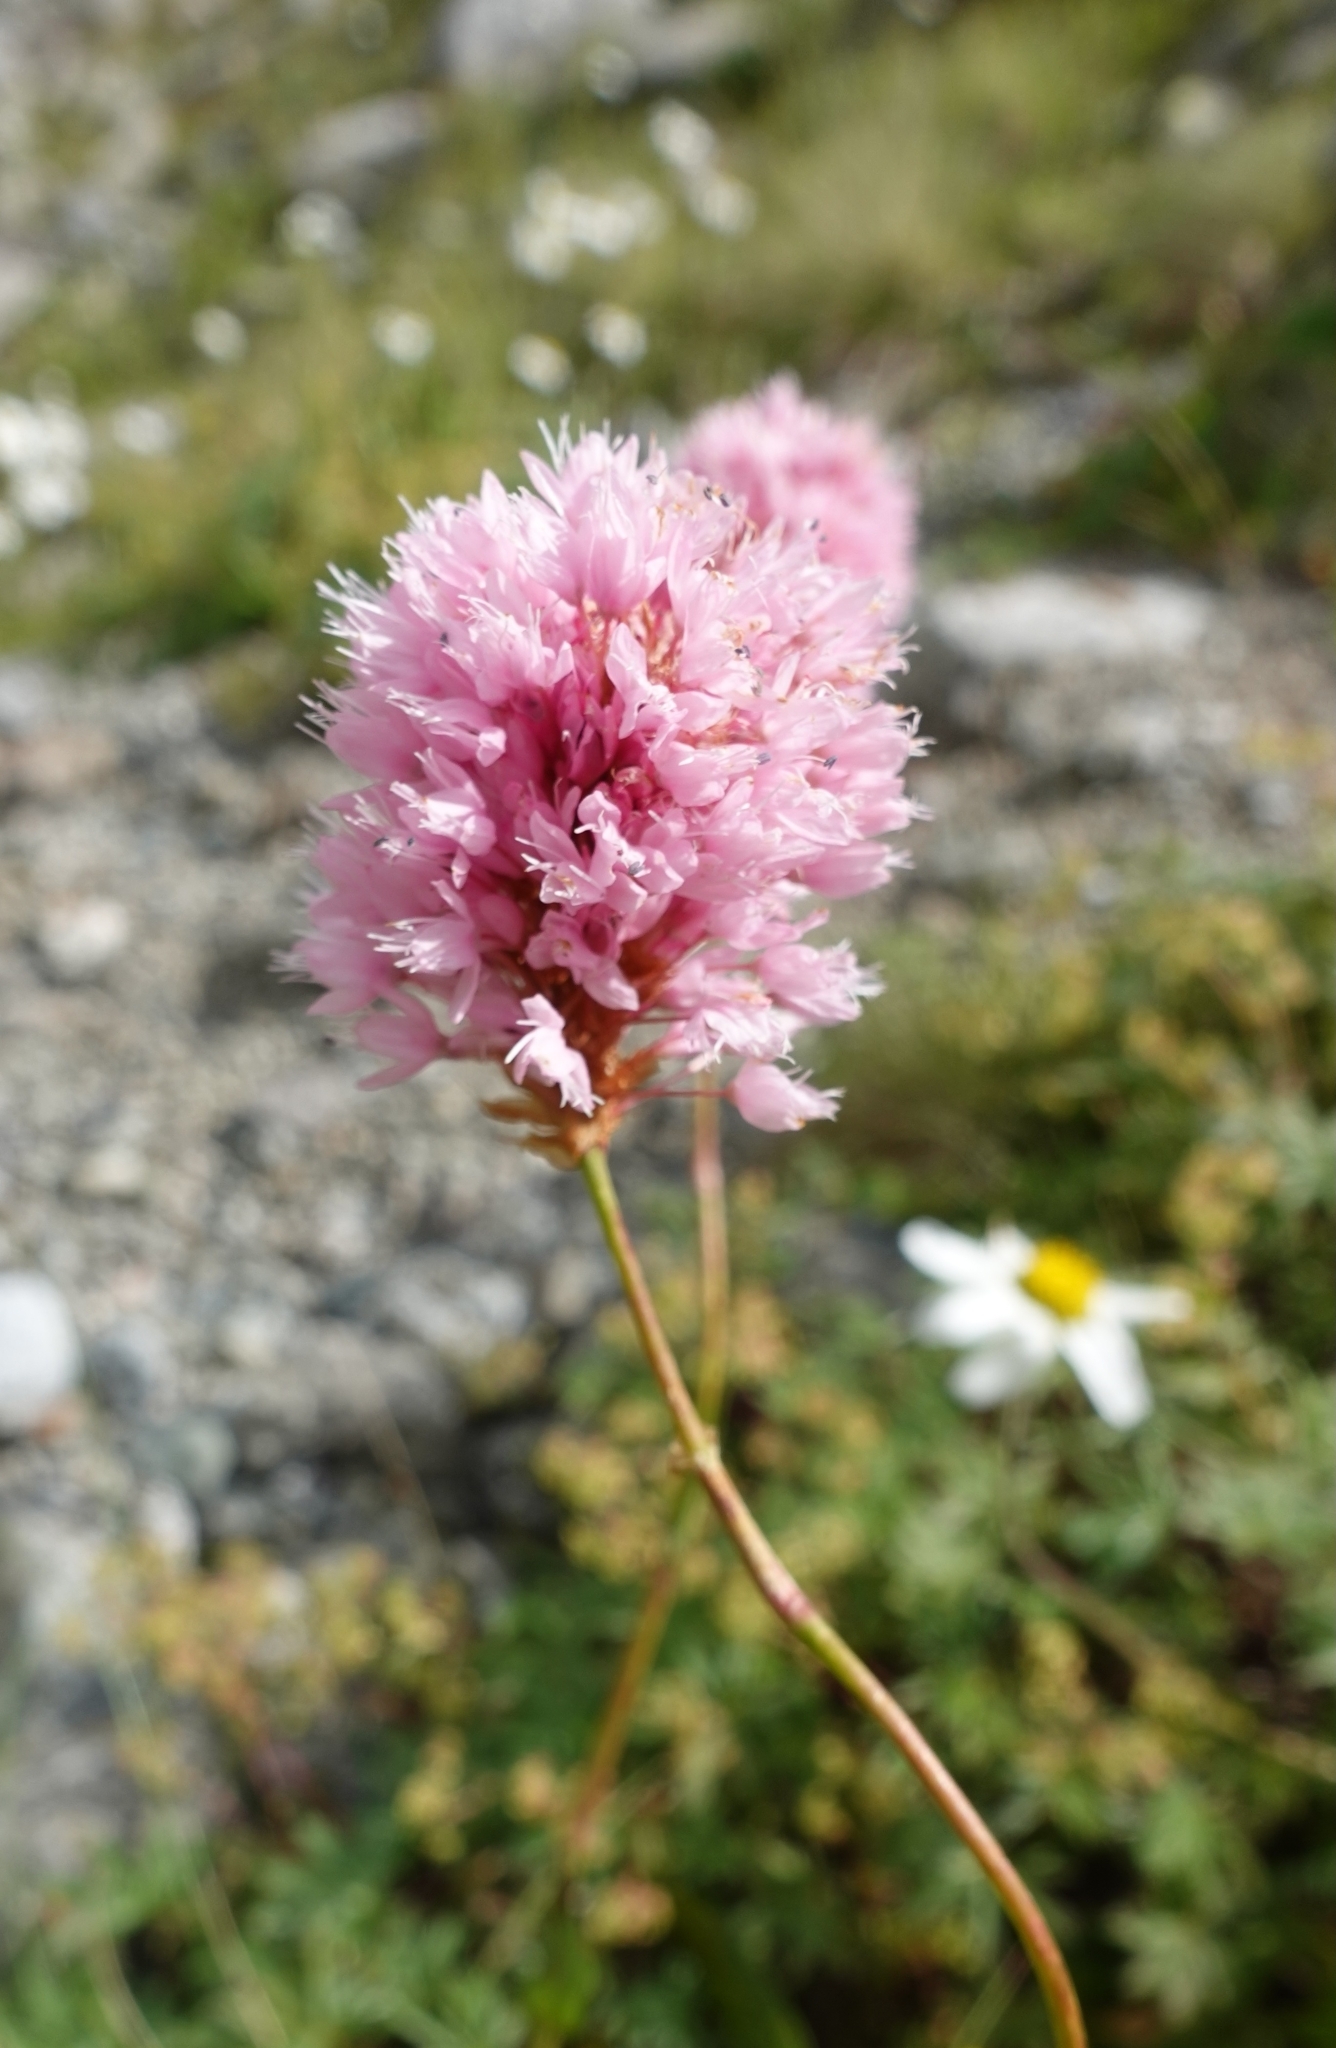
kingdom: Plantae
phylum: Tracheophyta
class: Magnoliopsida
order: Caryophyllales
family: Polygonaceae
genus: Bistorta
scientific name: Bistorta carnea
